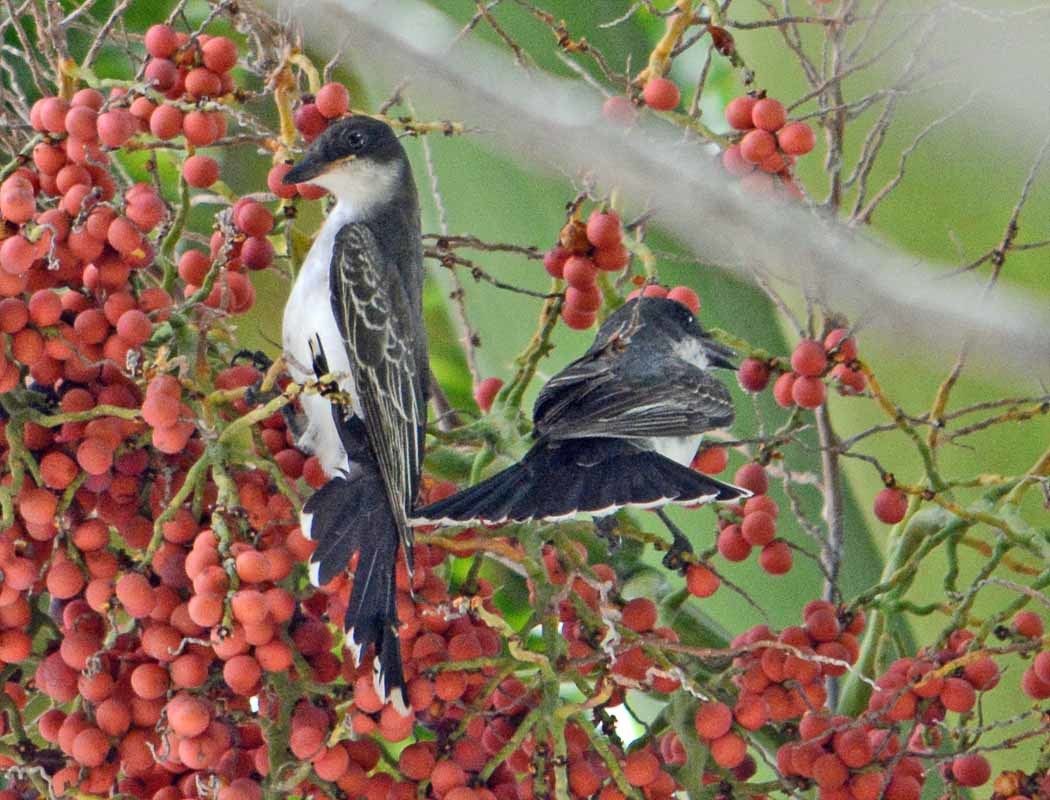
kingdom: Animalia
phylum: Chordata
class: Aves
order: Passeriformes
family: Tyrannidae
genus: Tyrannus
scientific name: Tyrannus tyrannus
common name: Eastern kingbird
